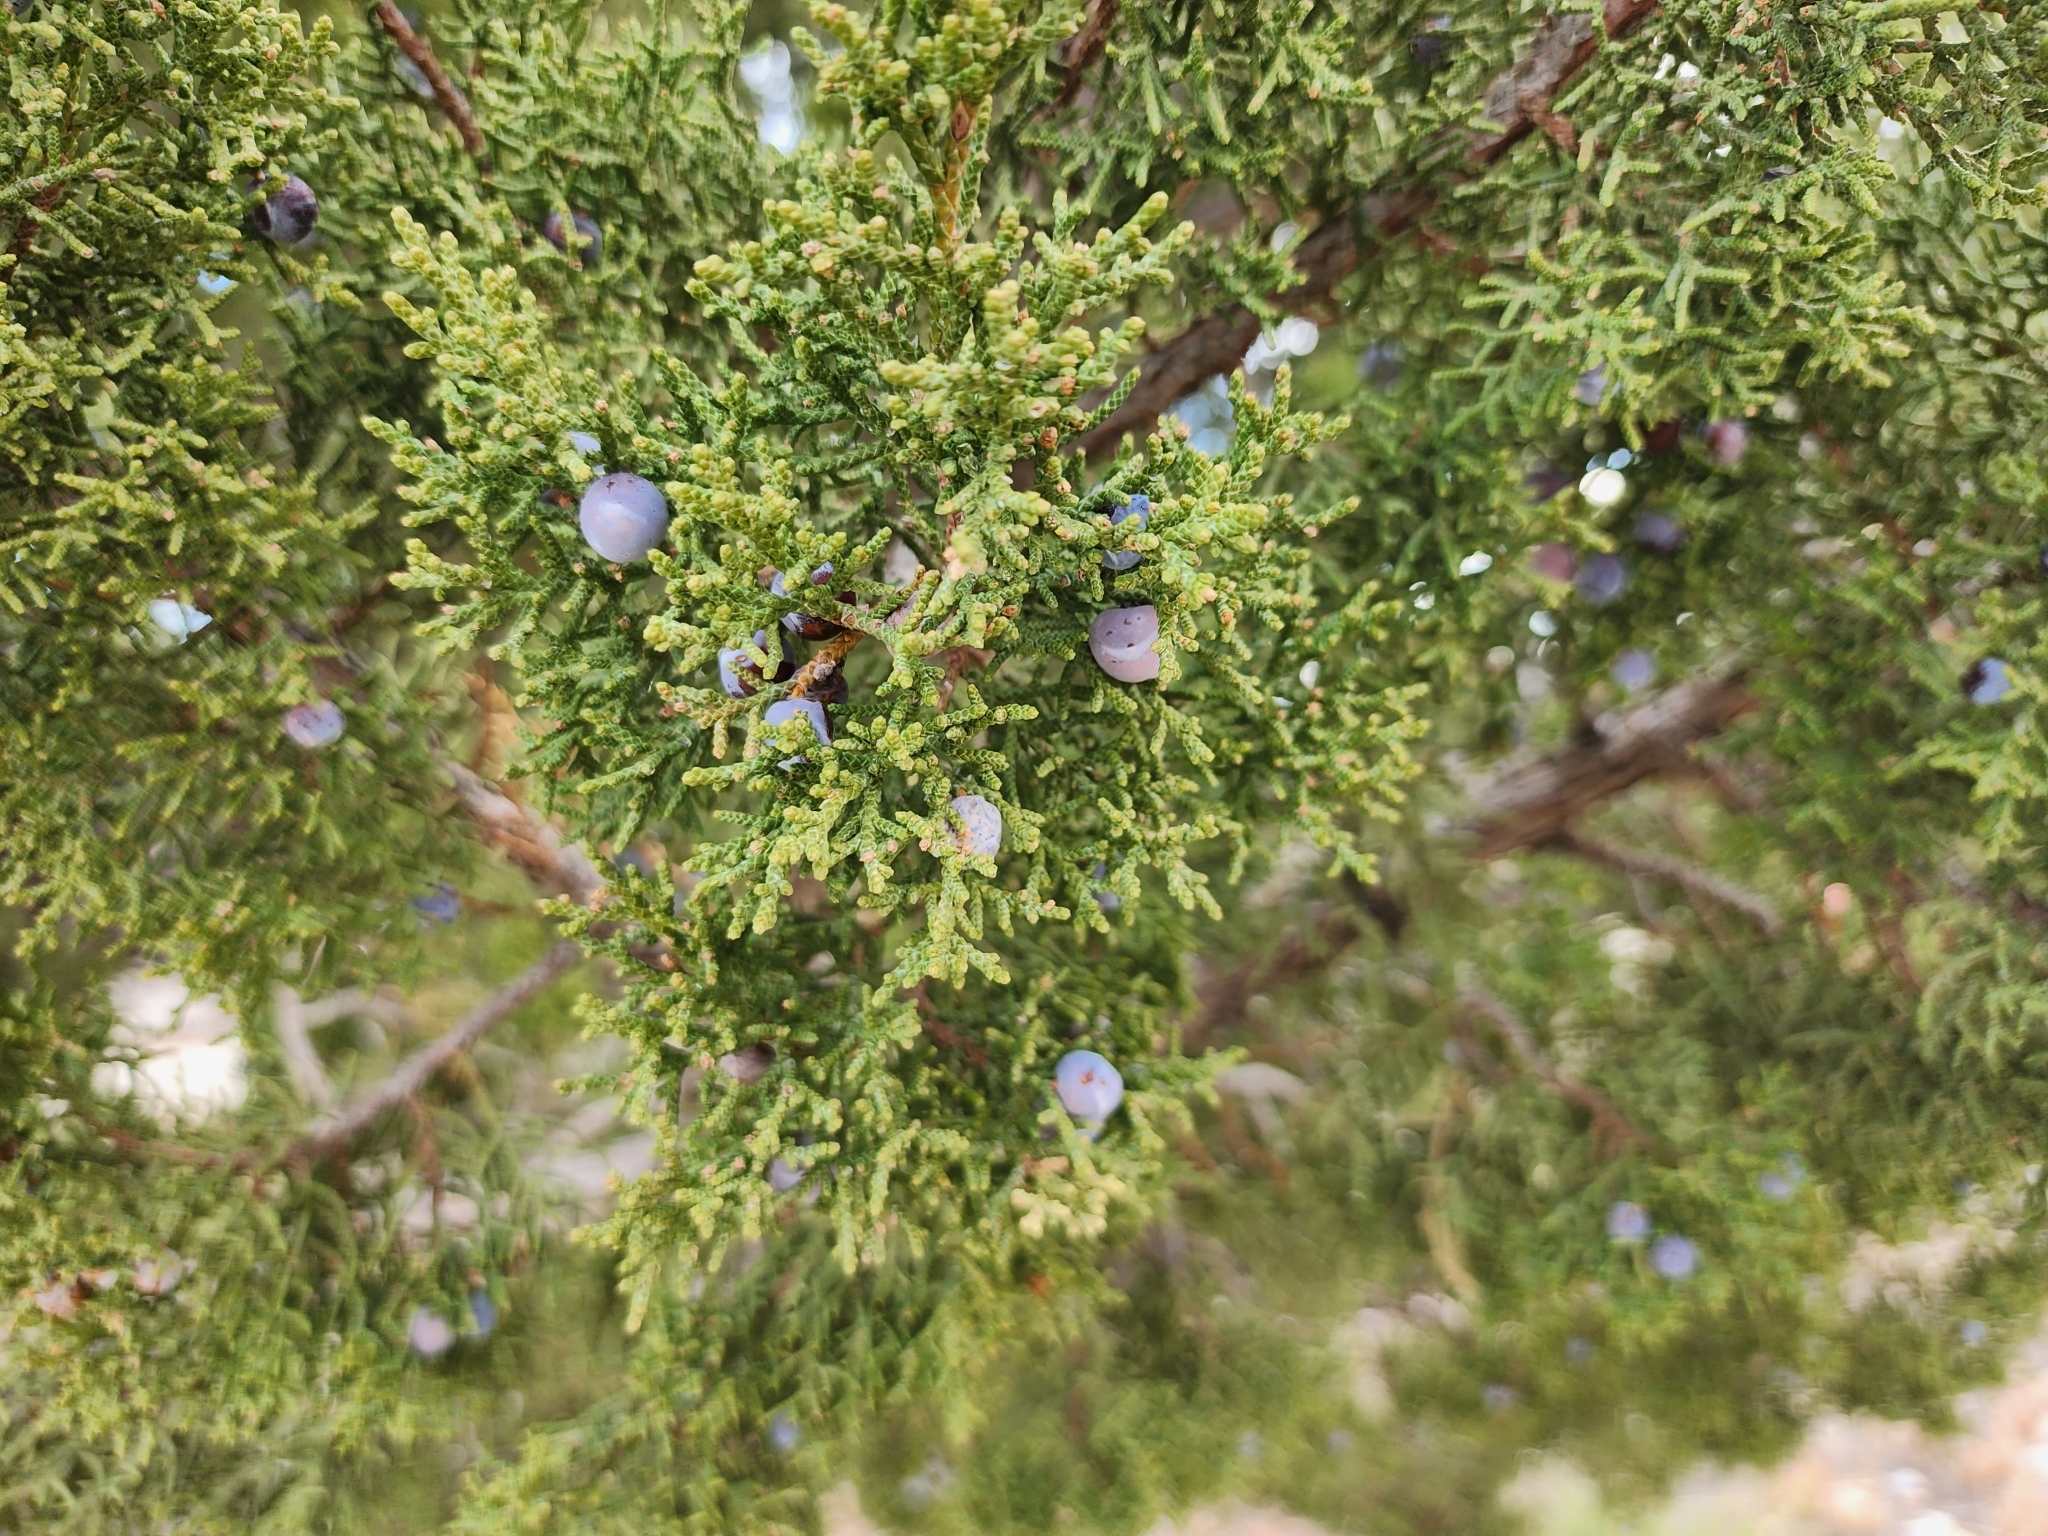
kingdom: Plantae
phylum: Tracheophyta
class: Pinopsida
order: Pinales
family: Cupressaceae
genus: Juniperus
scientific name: Juniperus monosperma
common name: One-seed juniper
